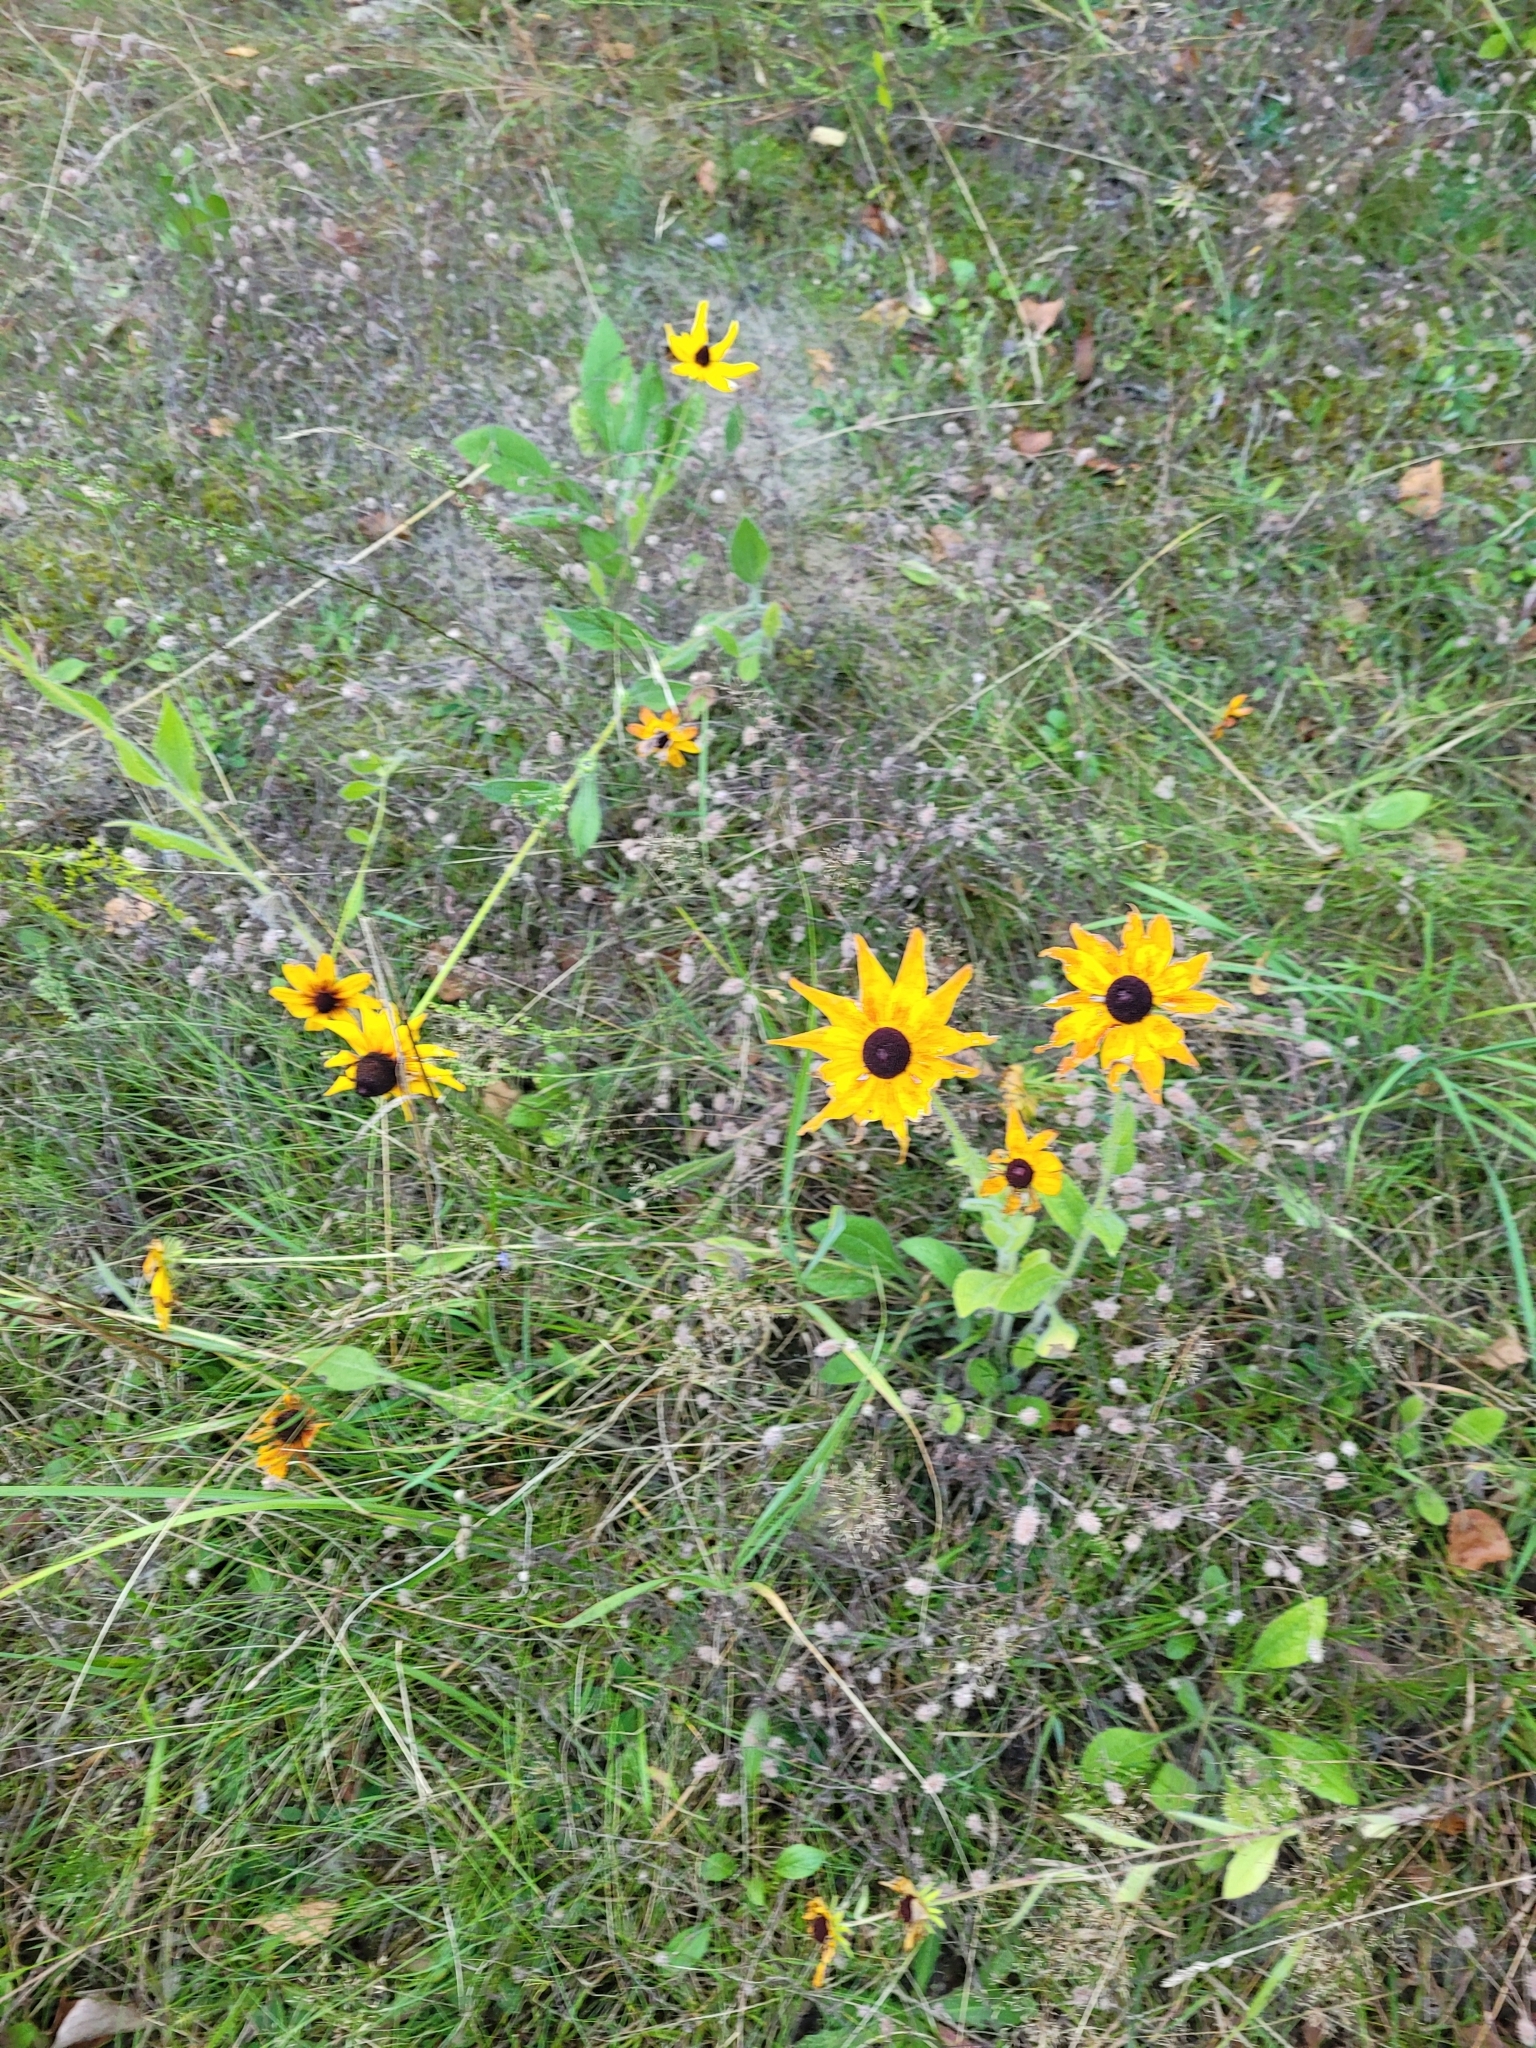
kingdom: Plantae
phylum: Tracheophyta
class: Magnoliopsida
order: Asterales
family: Asteraceae
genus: Rudbeckia
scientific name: Rudbeckia hirta
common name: Black-eyed-susan
